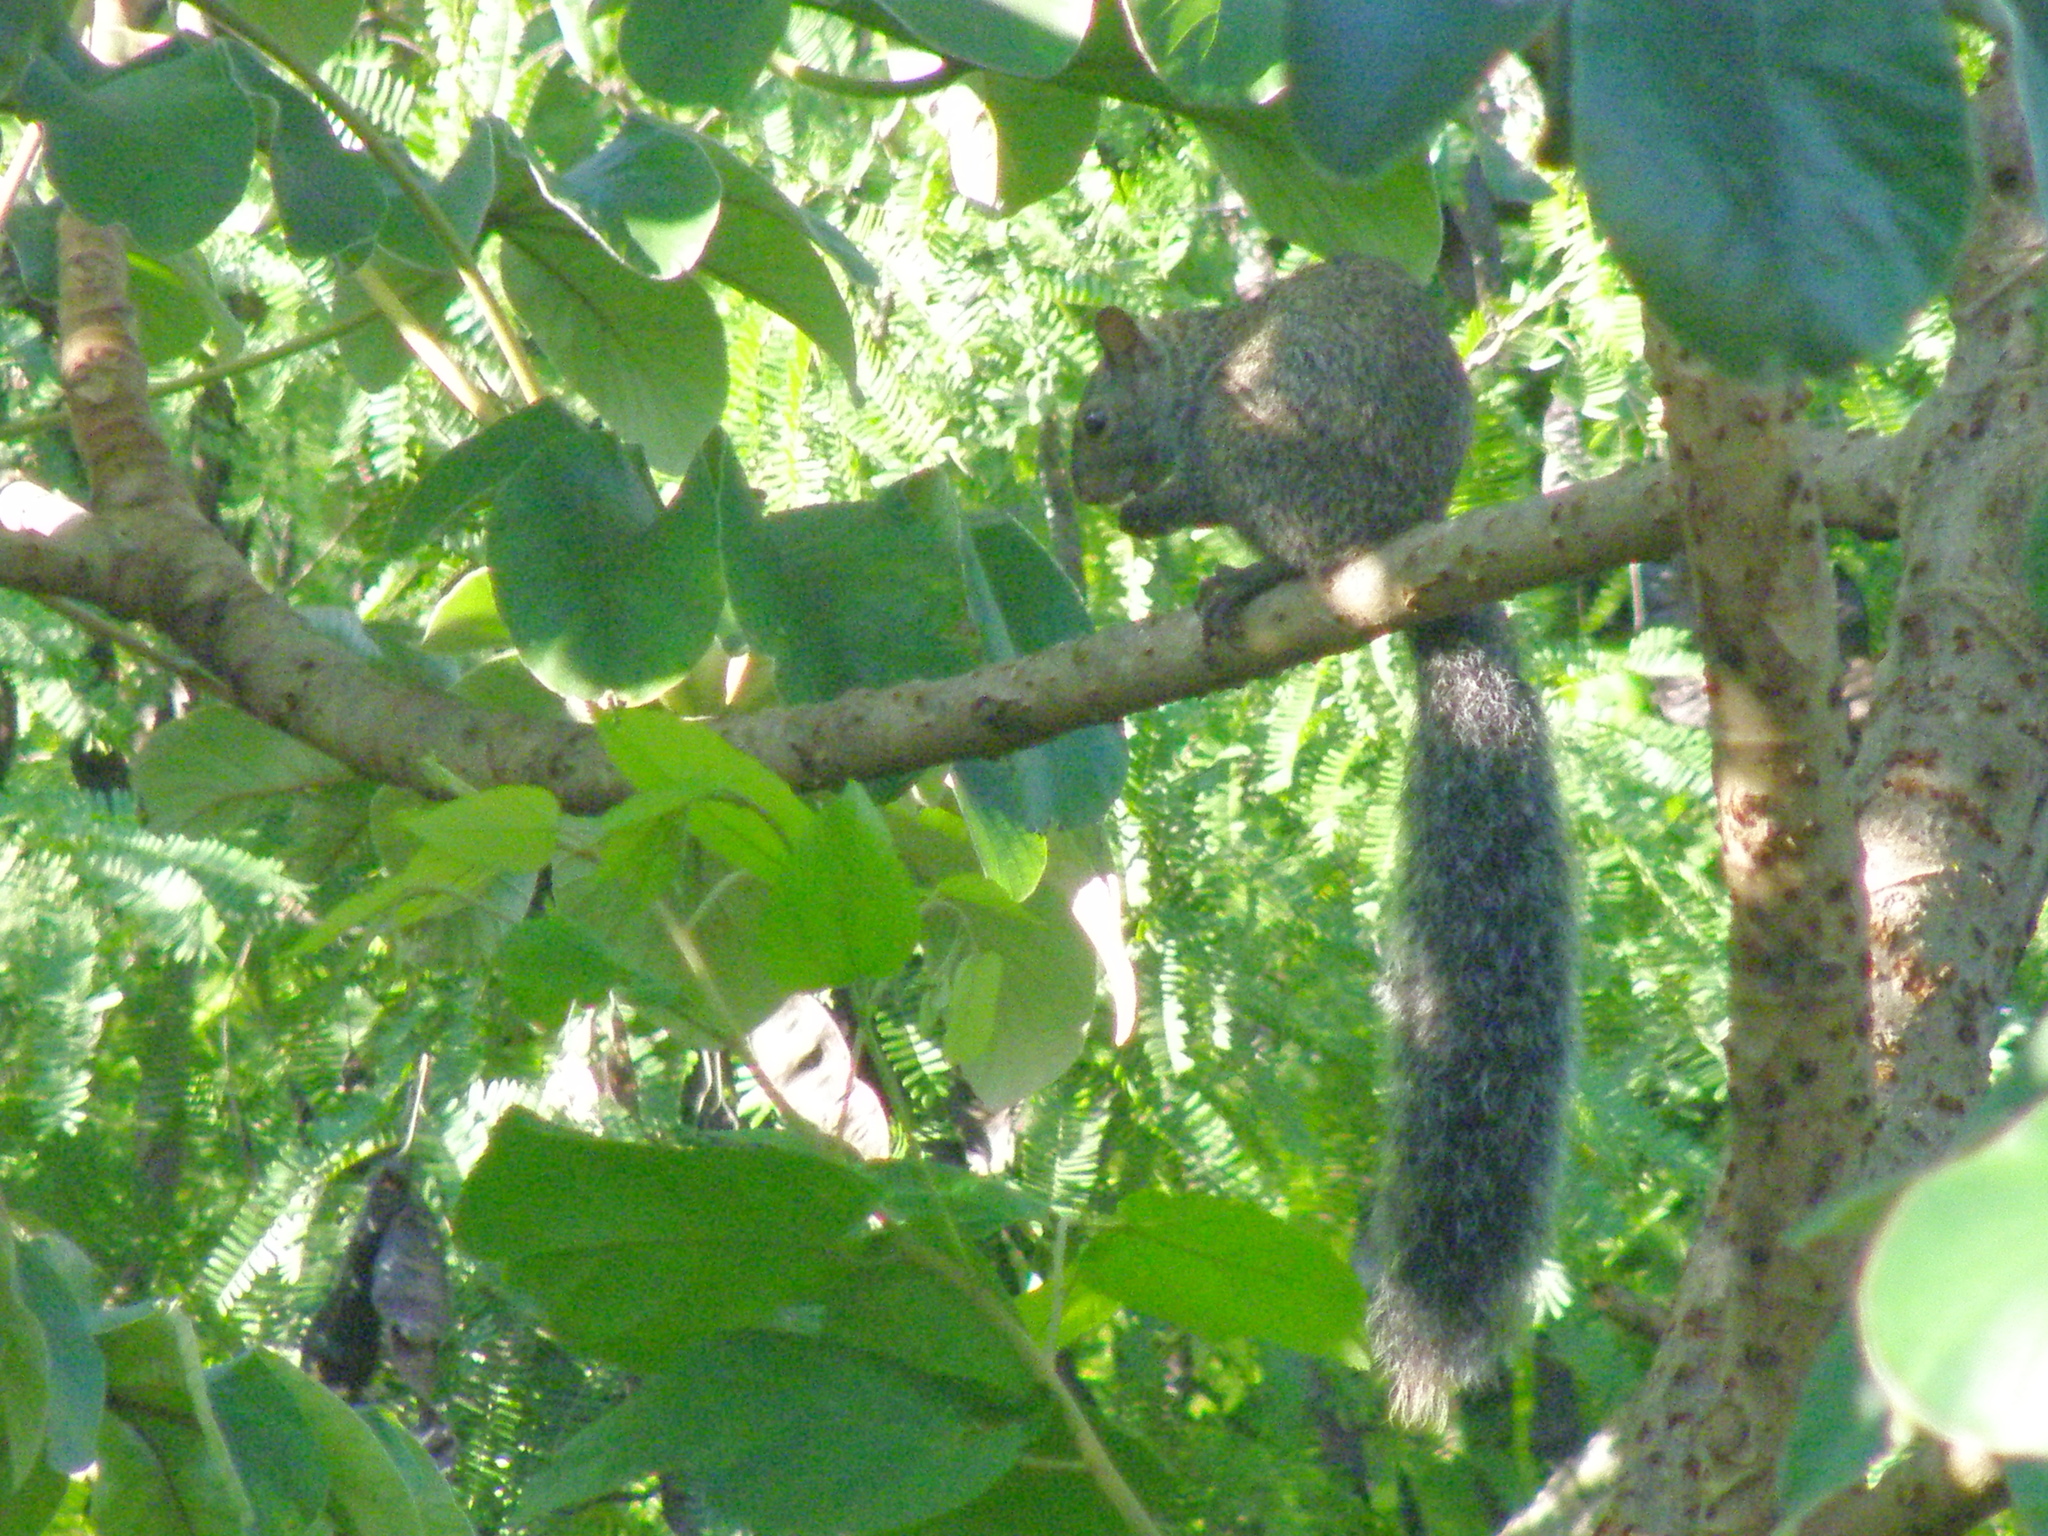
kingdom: Animalia
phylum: Chordata
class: Mammalia
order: Rodentia
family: Sciuridae
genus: Sciurus
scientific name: Sciurus yucatanensis
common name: Yucatan squirrel
